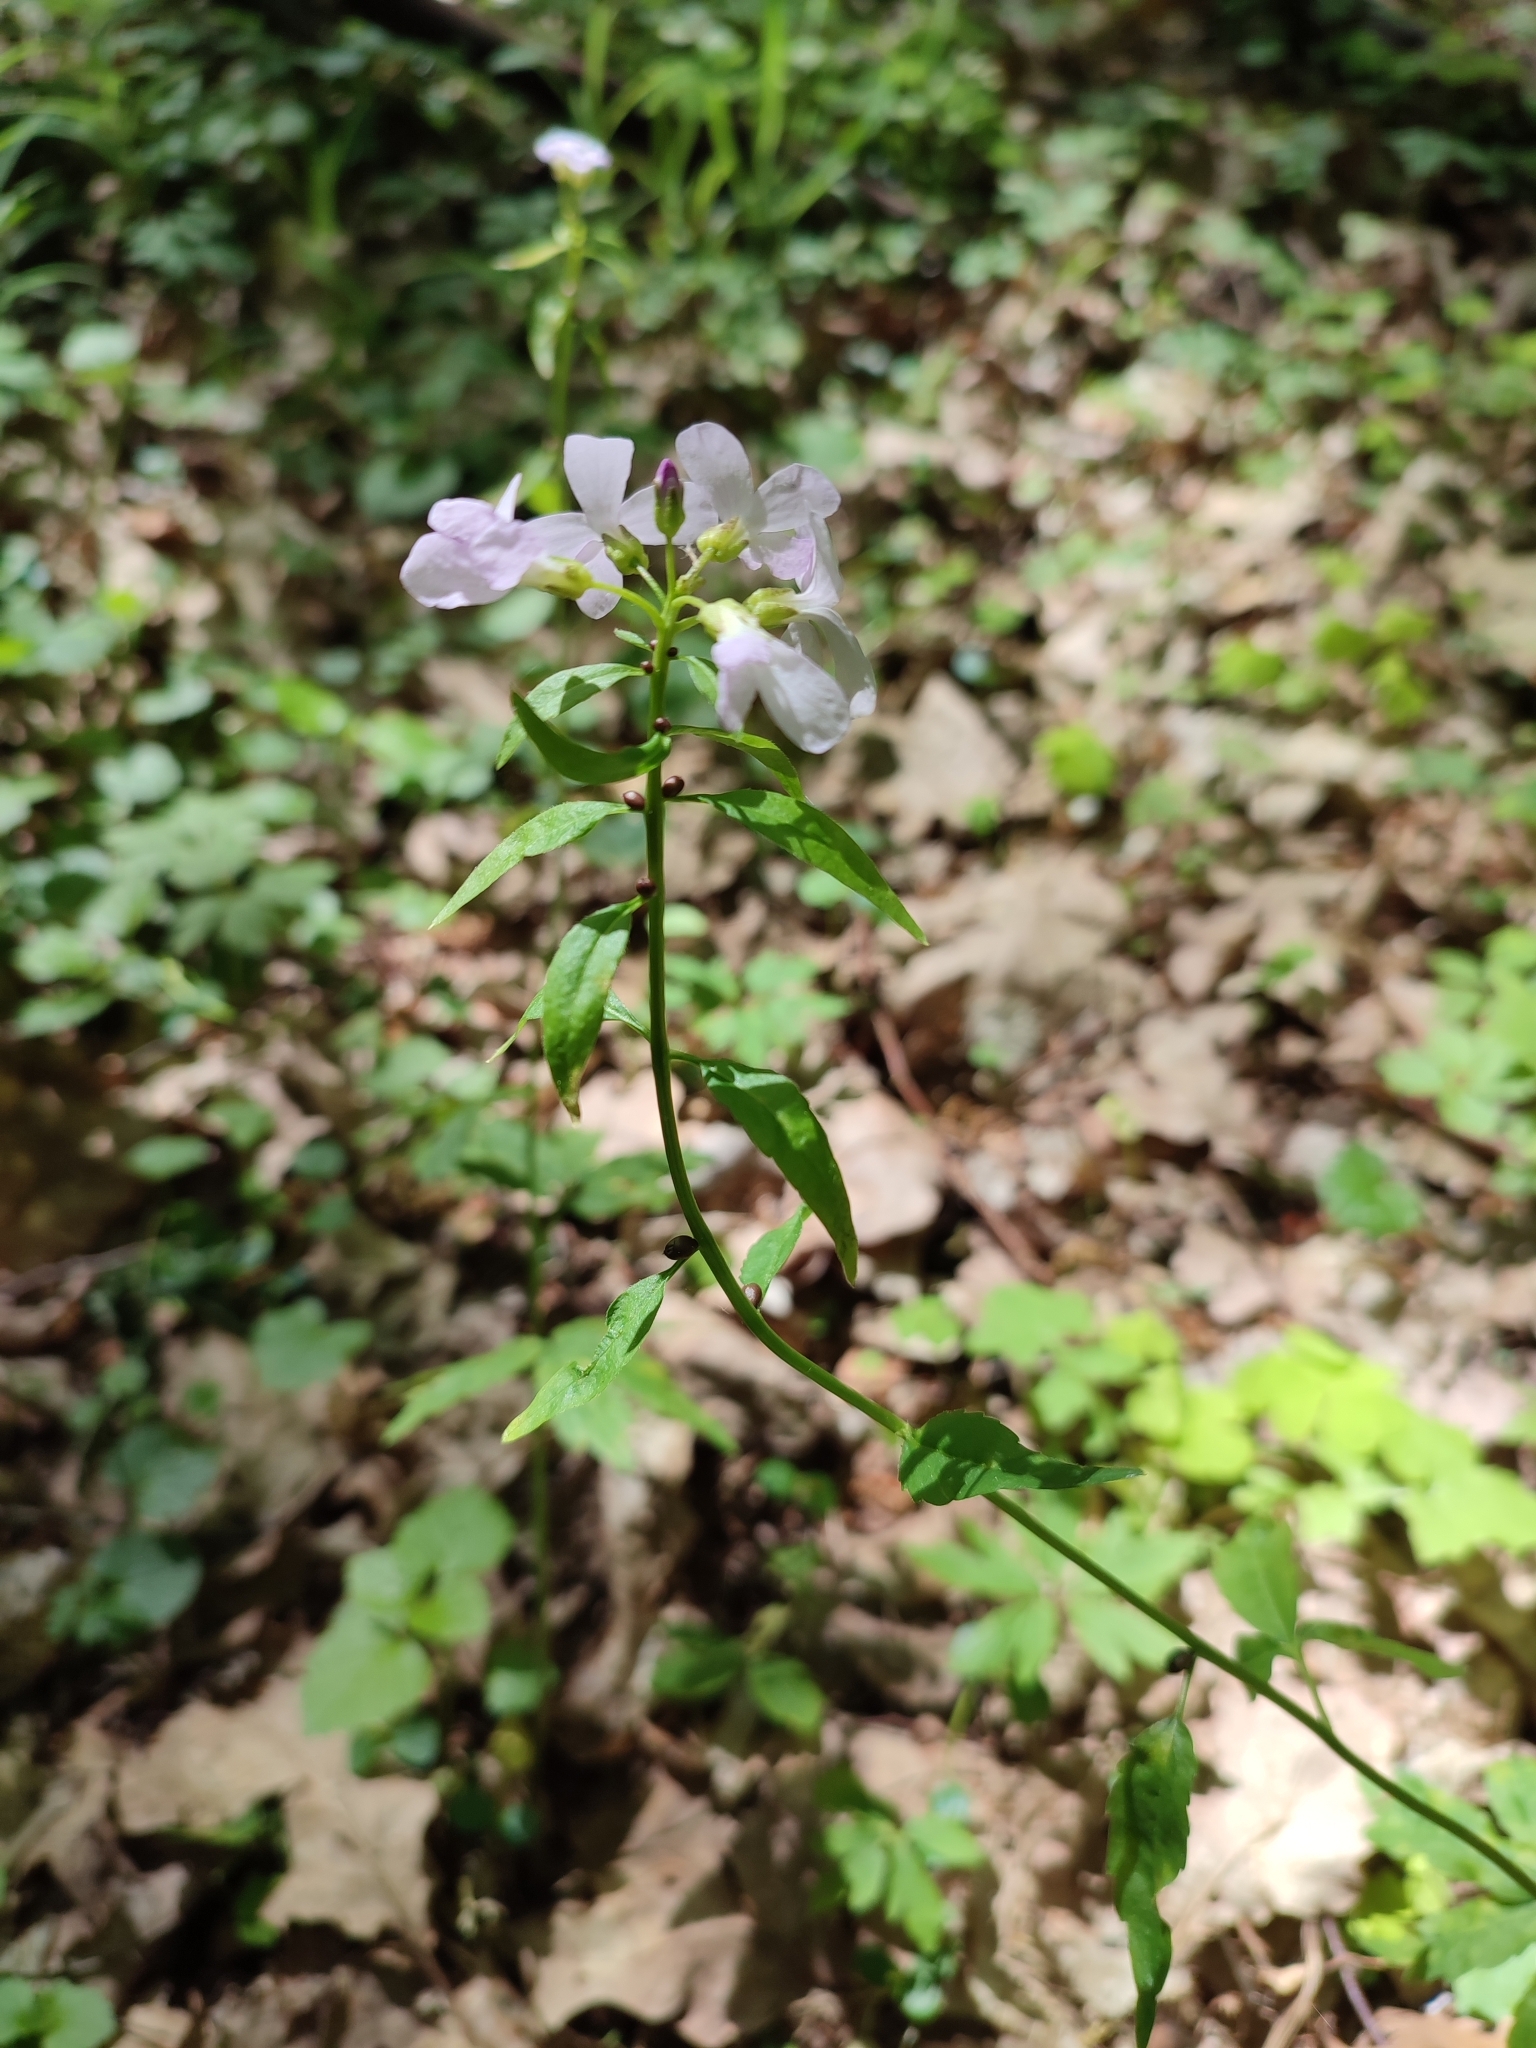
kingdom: Plantae
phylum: Tracheophyta
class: Magnoliopsida
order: Brassicales
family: Brassicaceae
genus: Cardamine
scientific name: Cardamine bulbifera
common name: Coralroot bittercress
